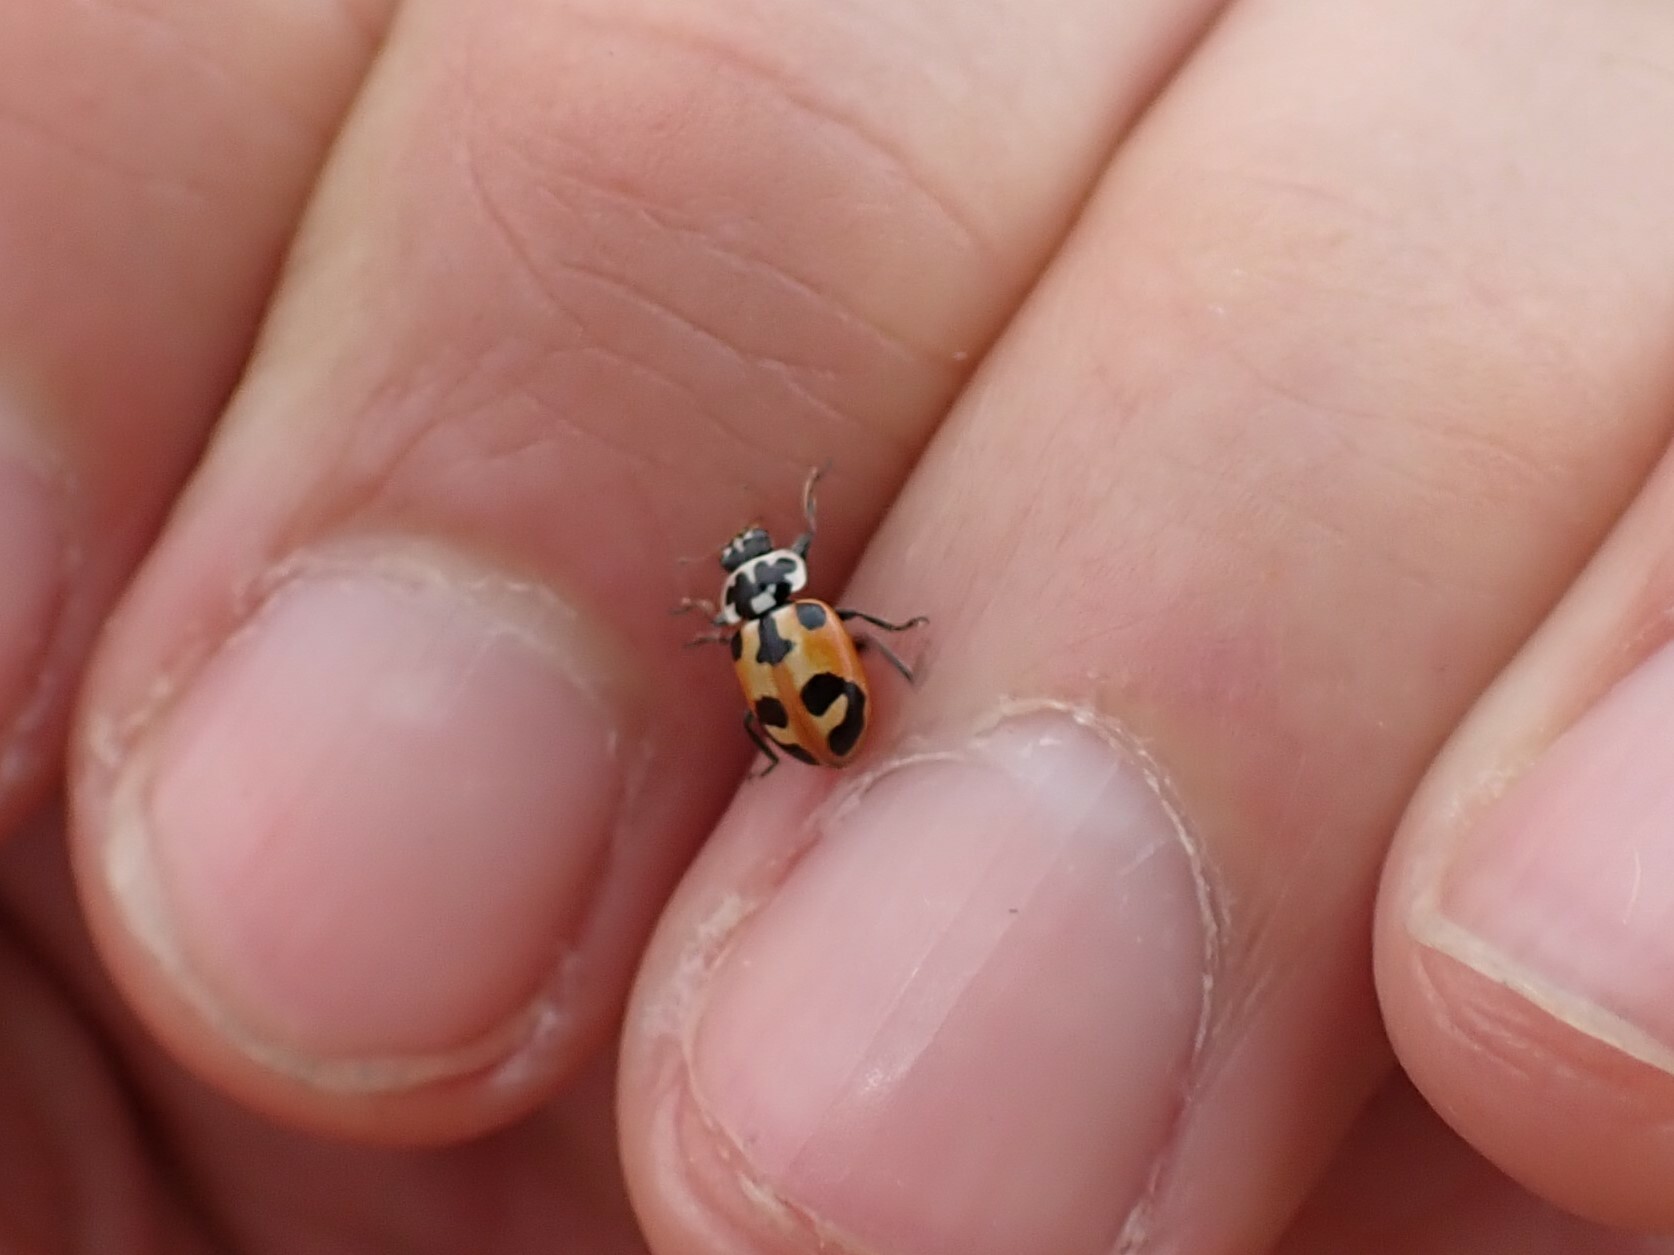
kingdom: Animalia
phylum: Arthropoda
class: Insecta
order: Coleoptera
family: Coccinellidae
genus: Hippodamia
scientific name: Hippodamia parenthesis
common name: Parenthesis lady beetle
